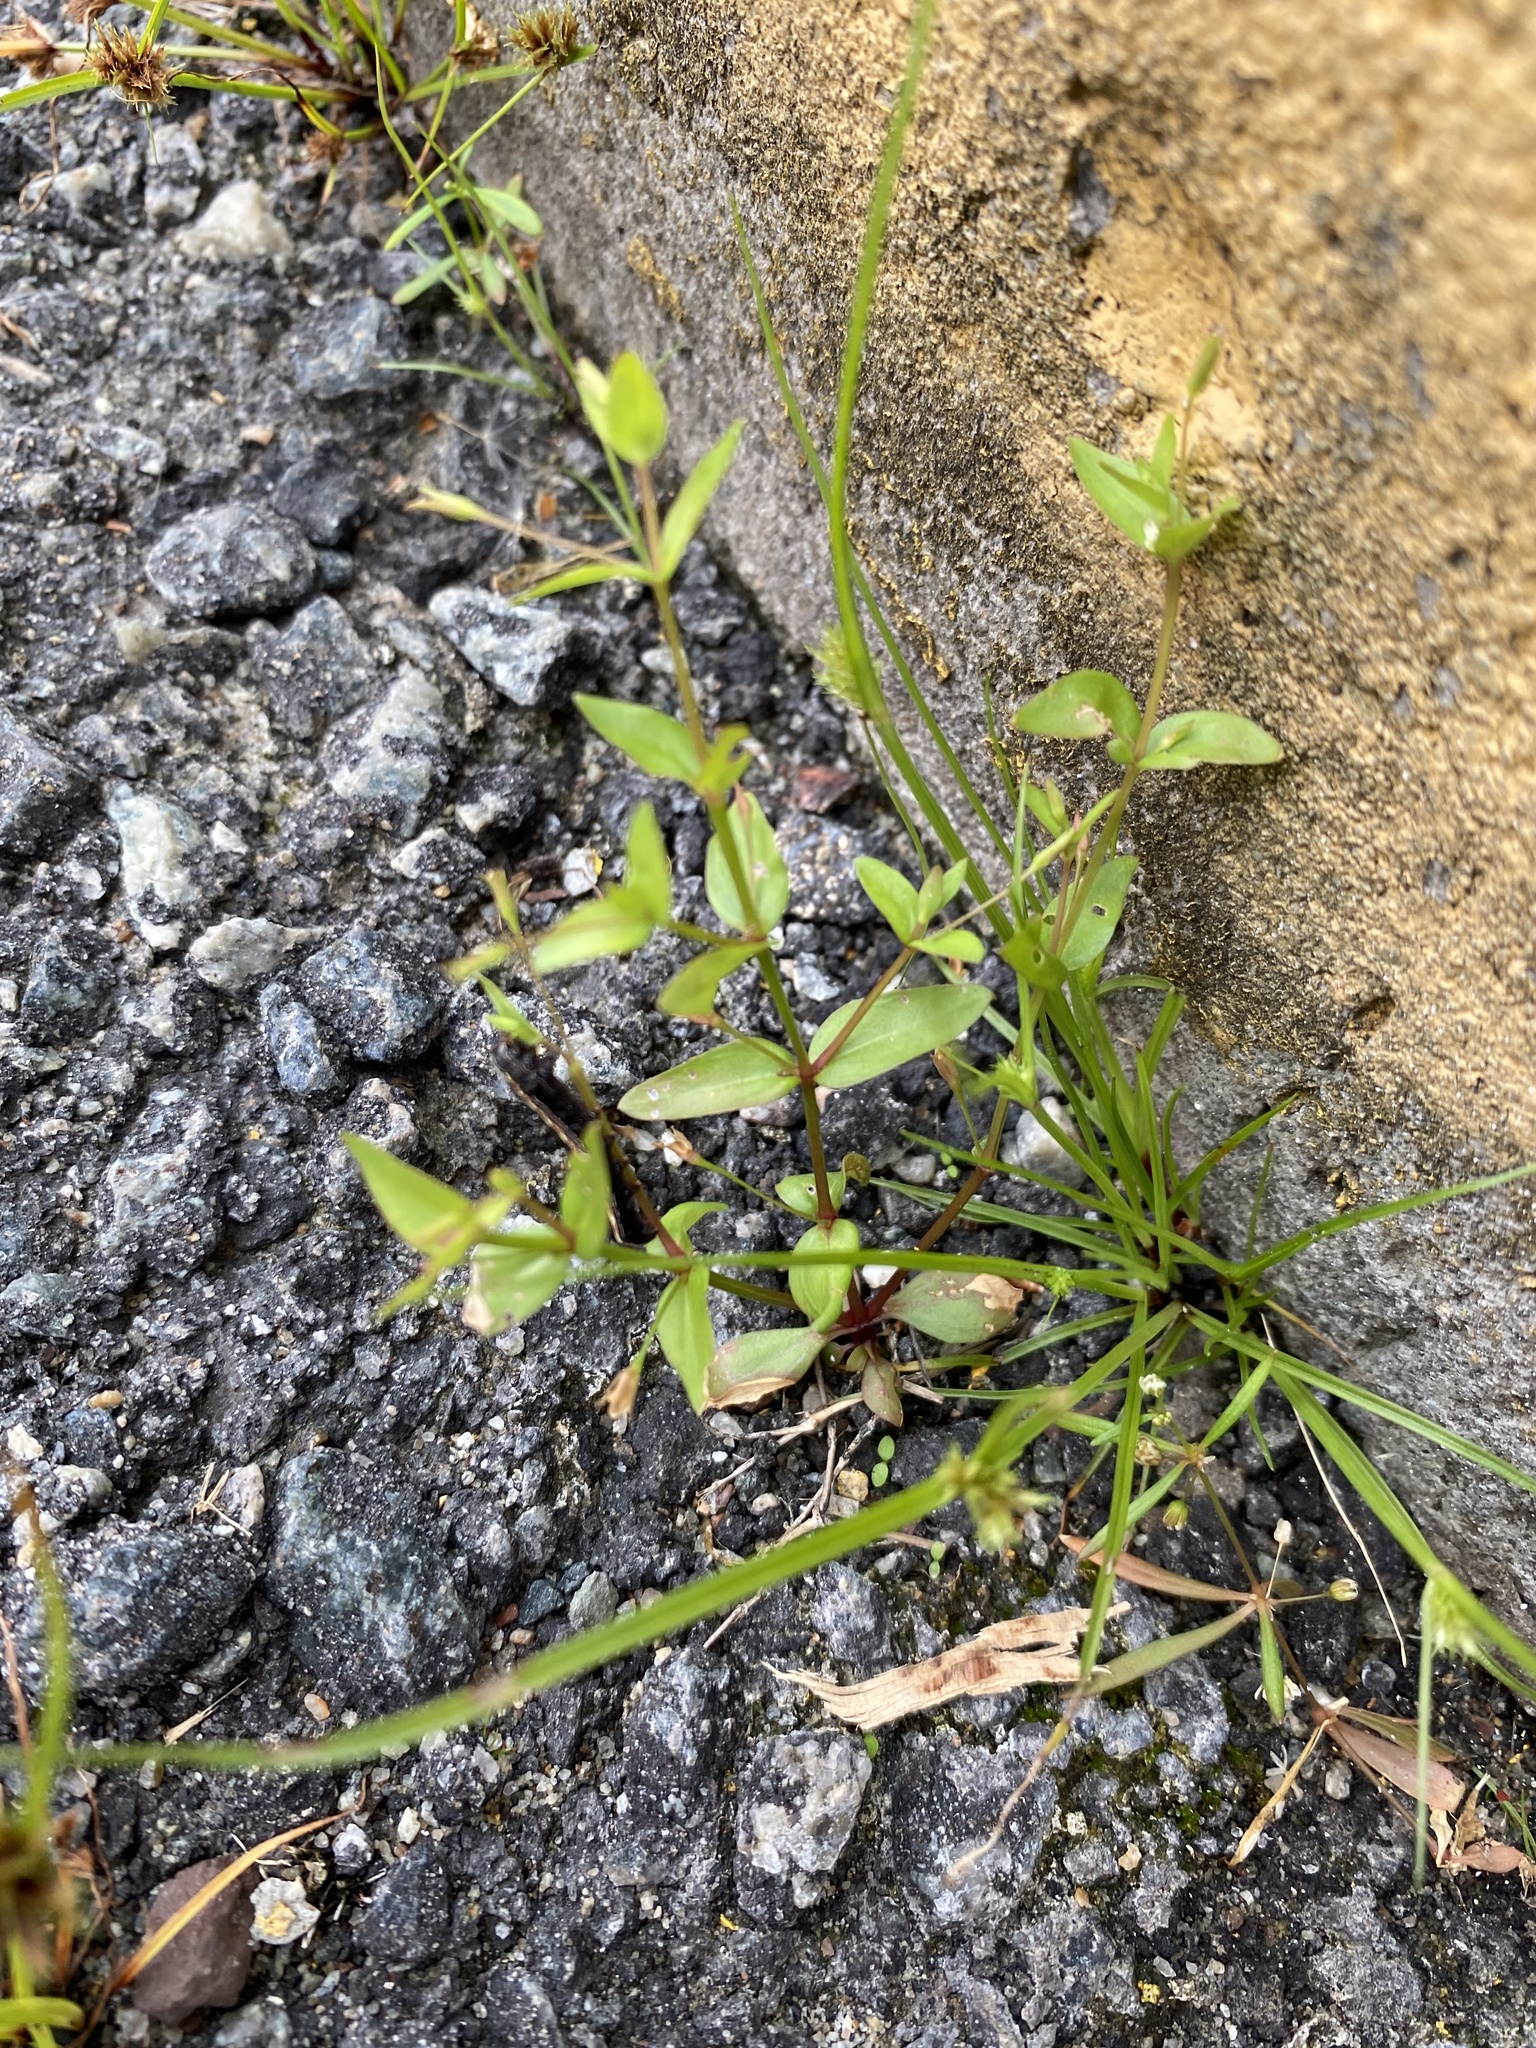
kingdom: Plantae
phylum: Tracheophyta
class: Magnoliopsida
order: Lamiales
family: Linderniaceae
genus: Lindernia
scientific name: Lindernia dubia
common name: Annual false pimpernel
